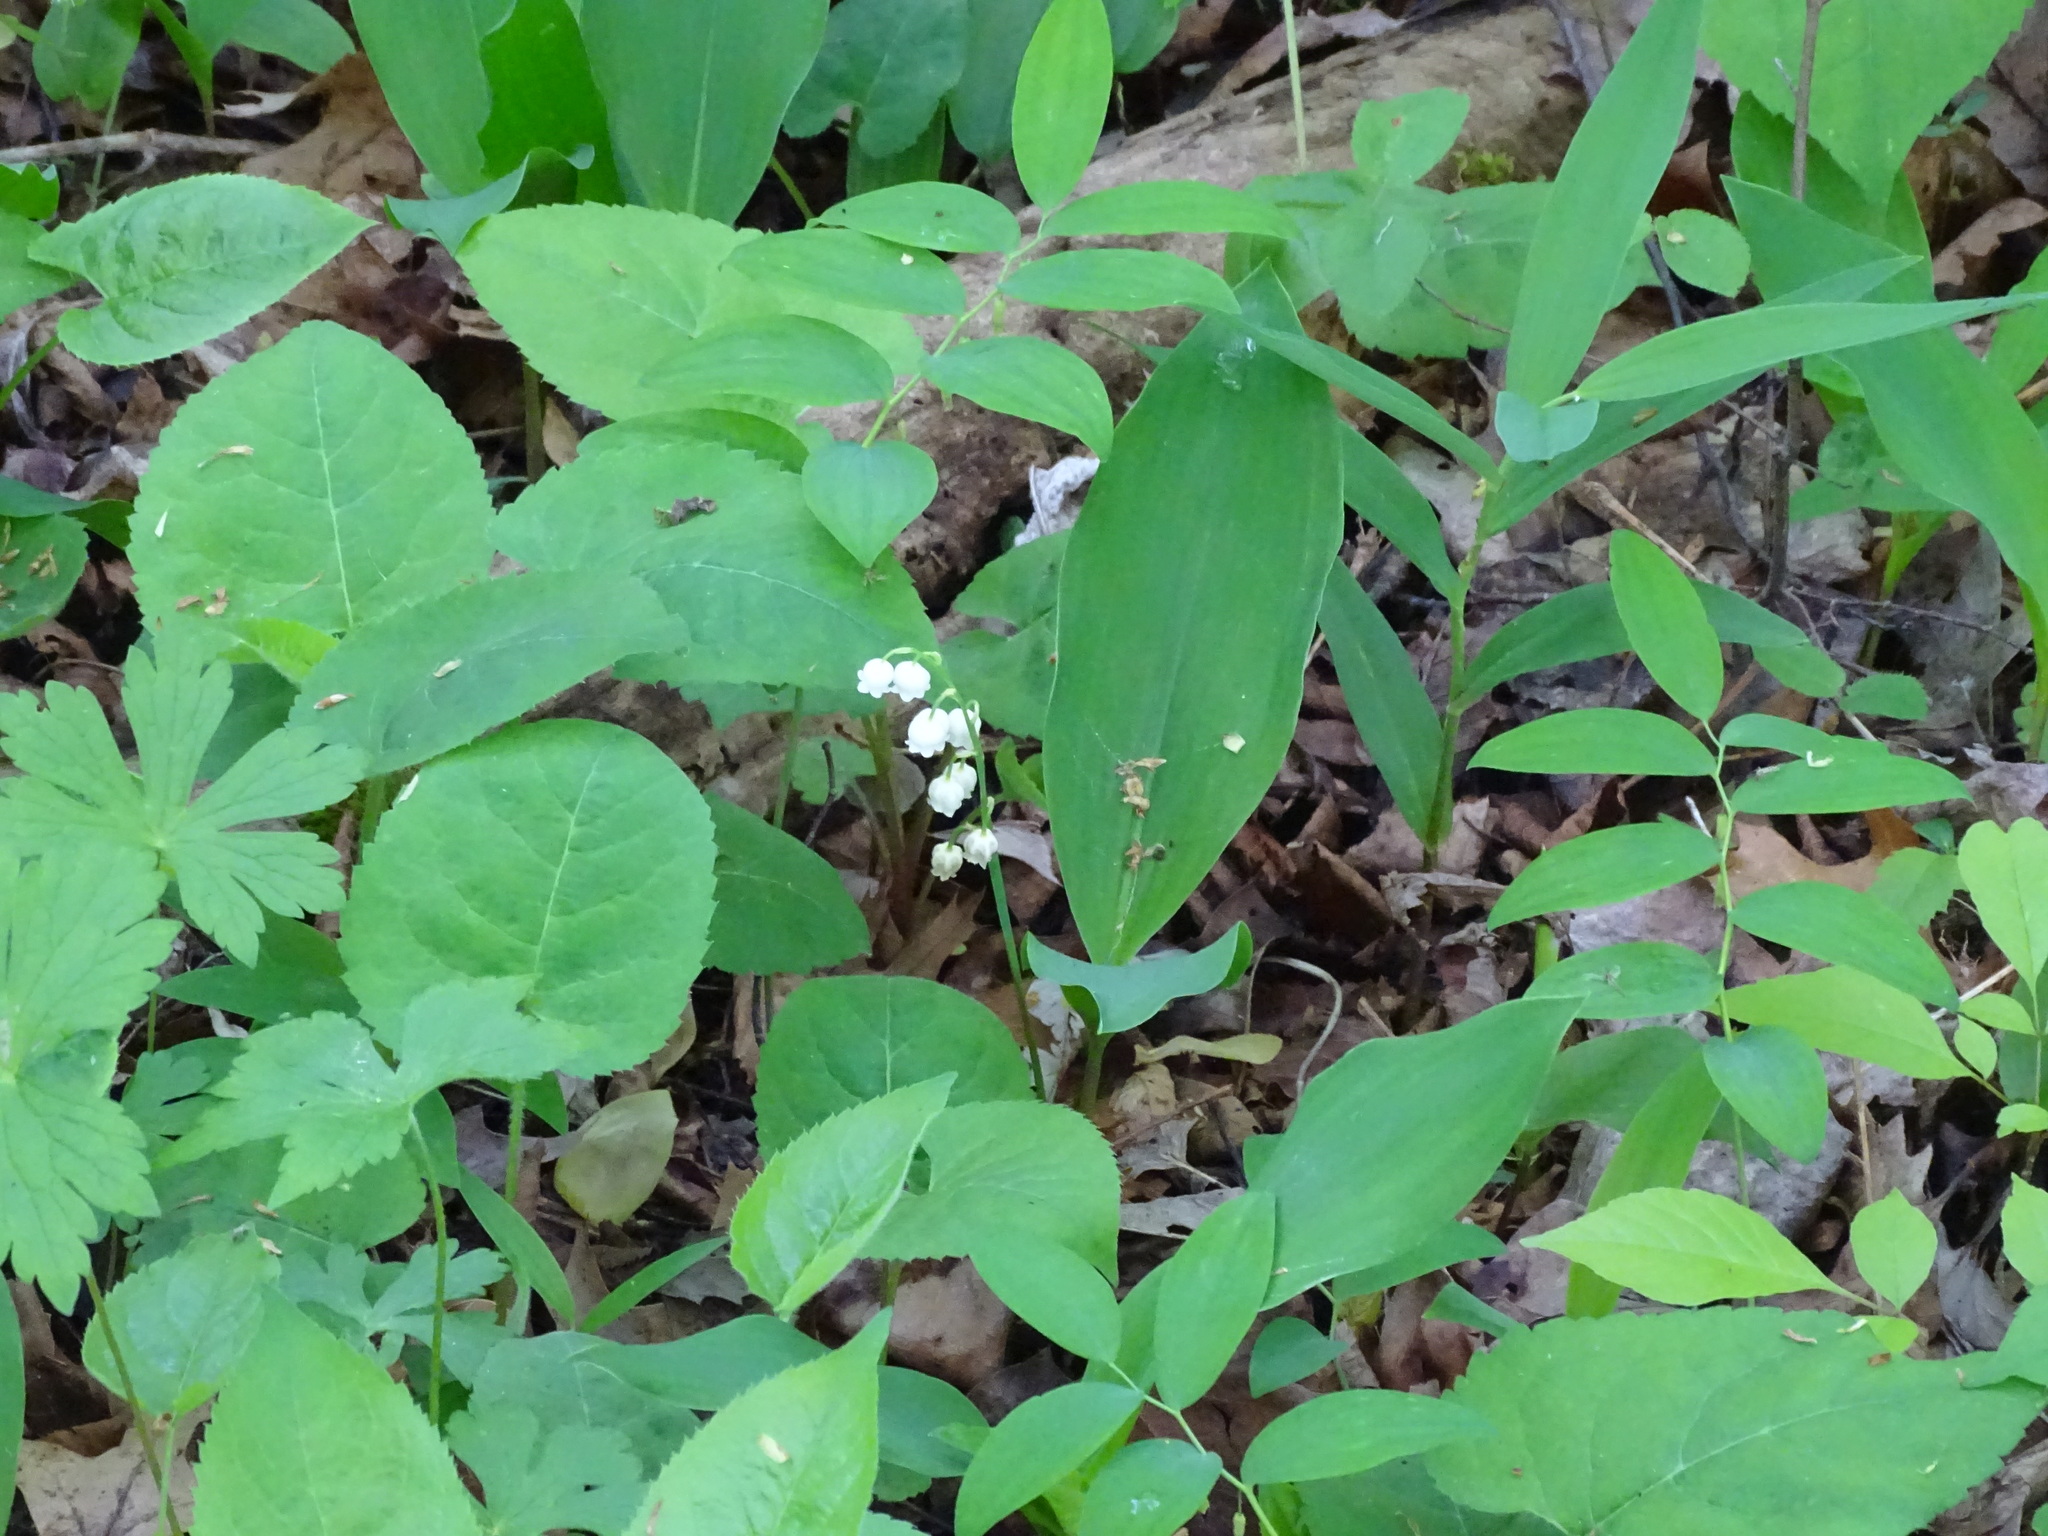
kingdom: Plantae
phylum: Tracheophyta
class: Liliopsida
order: Asparagales
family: Asparagaceae
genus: Convallaria
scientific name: Convallaria majalis
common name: Lily-of-the-valley
